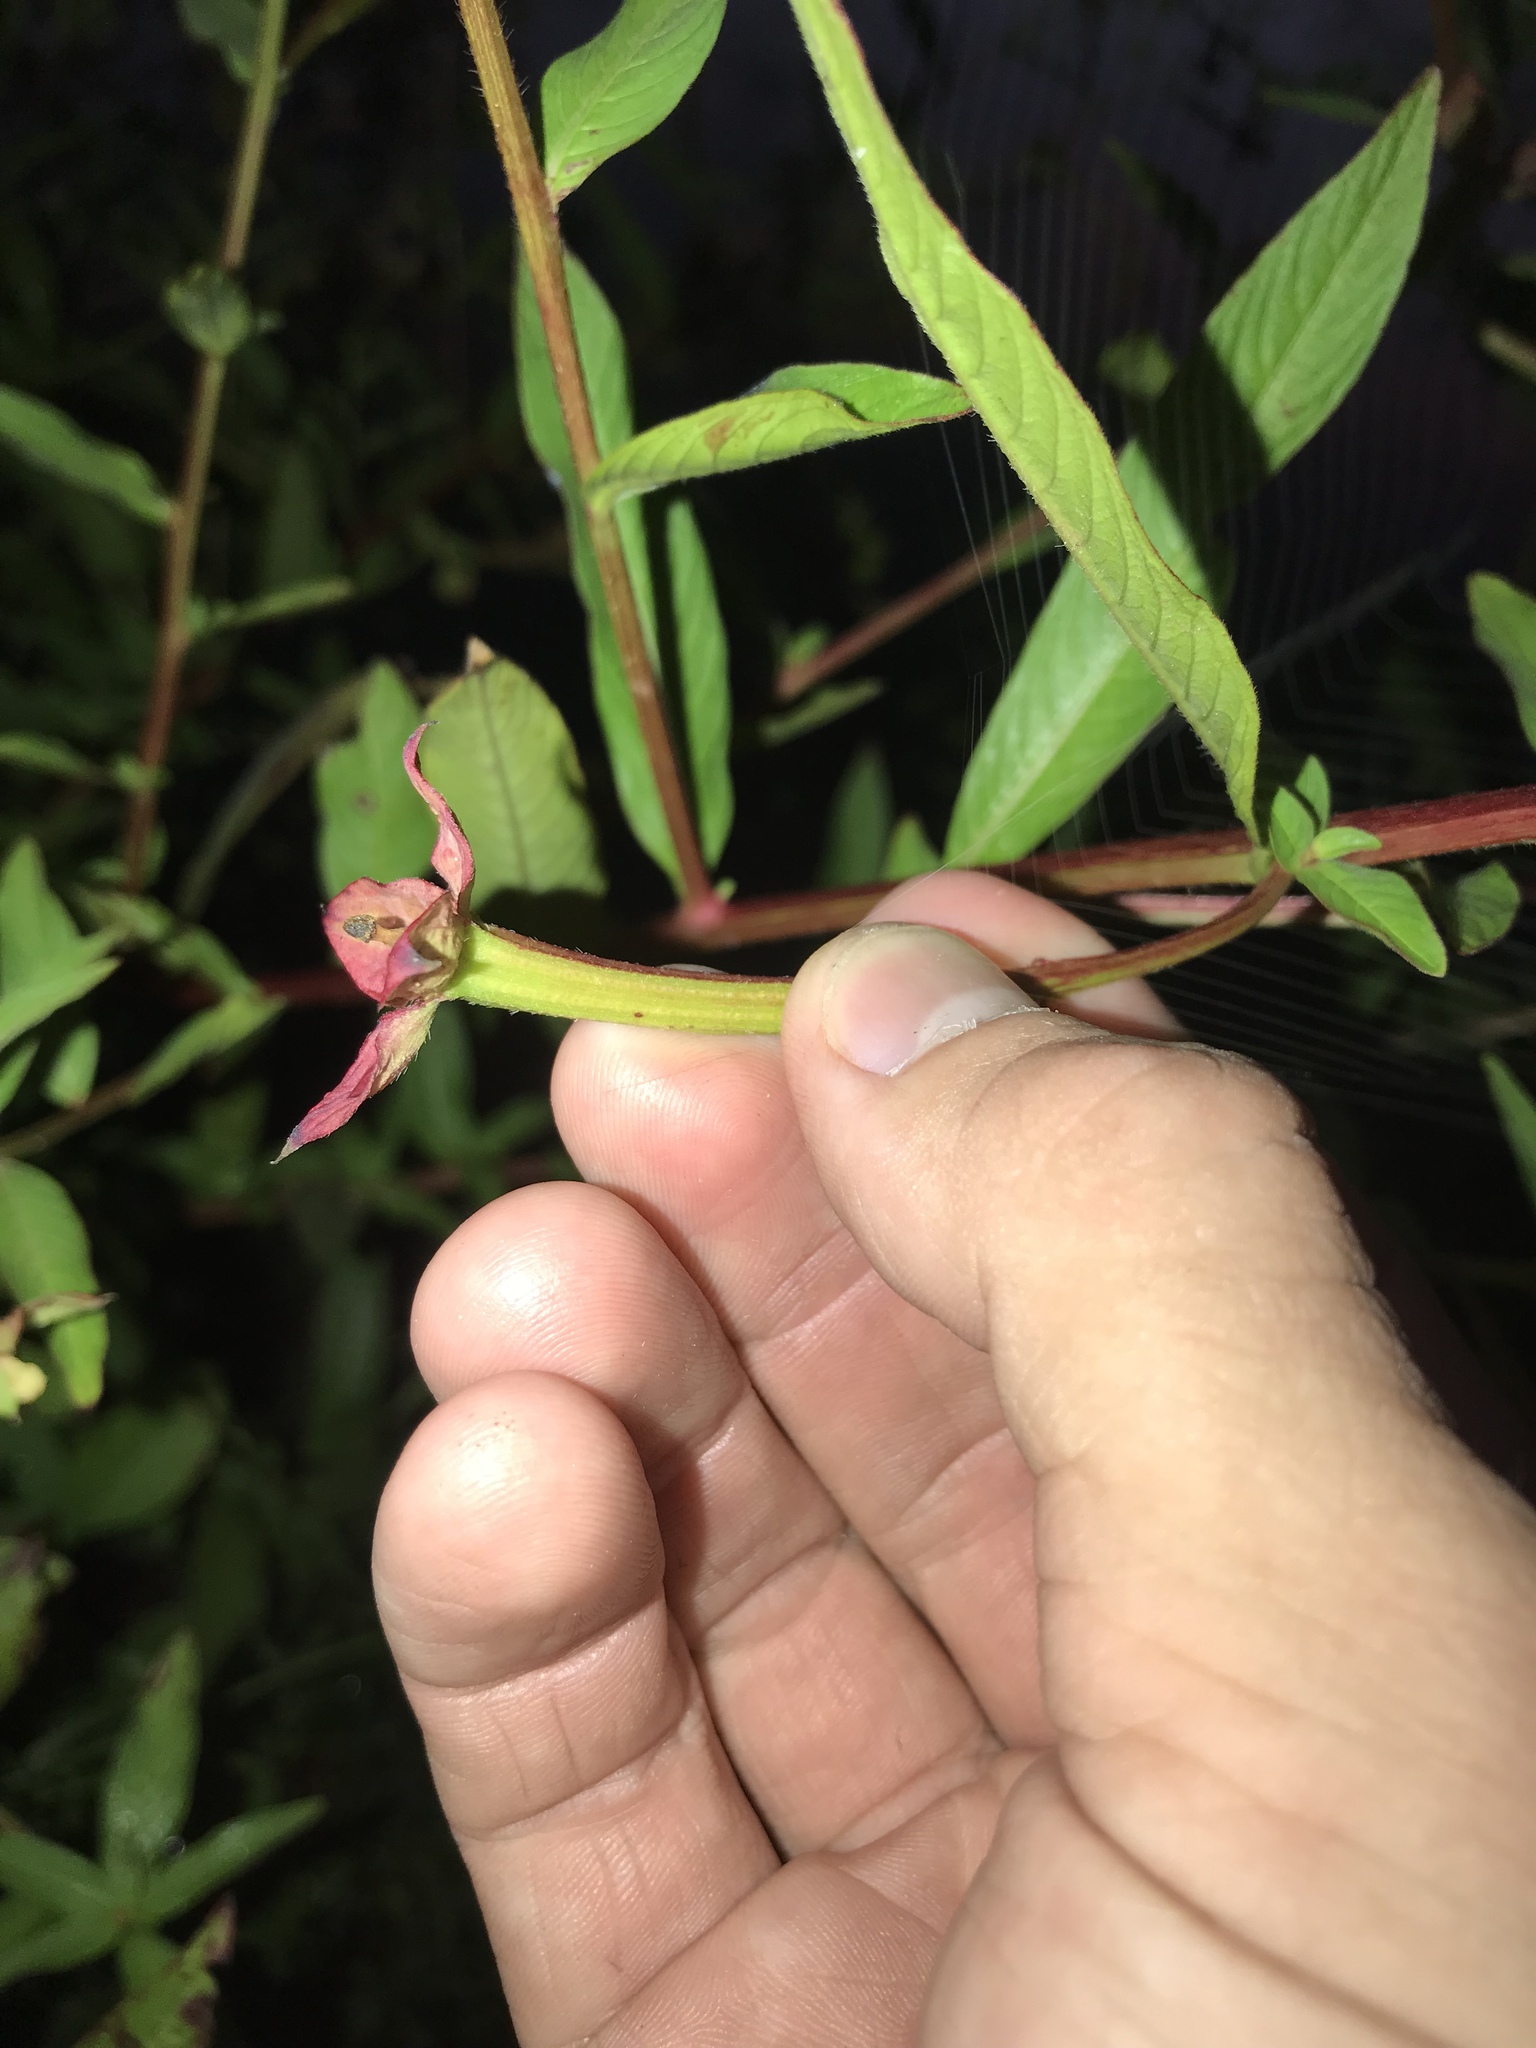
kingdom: Plantae
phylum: Tracheophyta
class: Magnoliopsida
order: Myrtales
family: Onagraceae
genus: Ludwigia
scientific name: Ludwigia octovalvis
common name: Water-primrose
